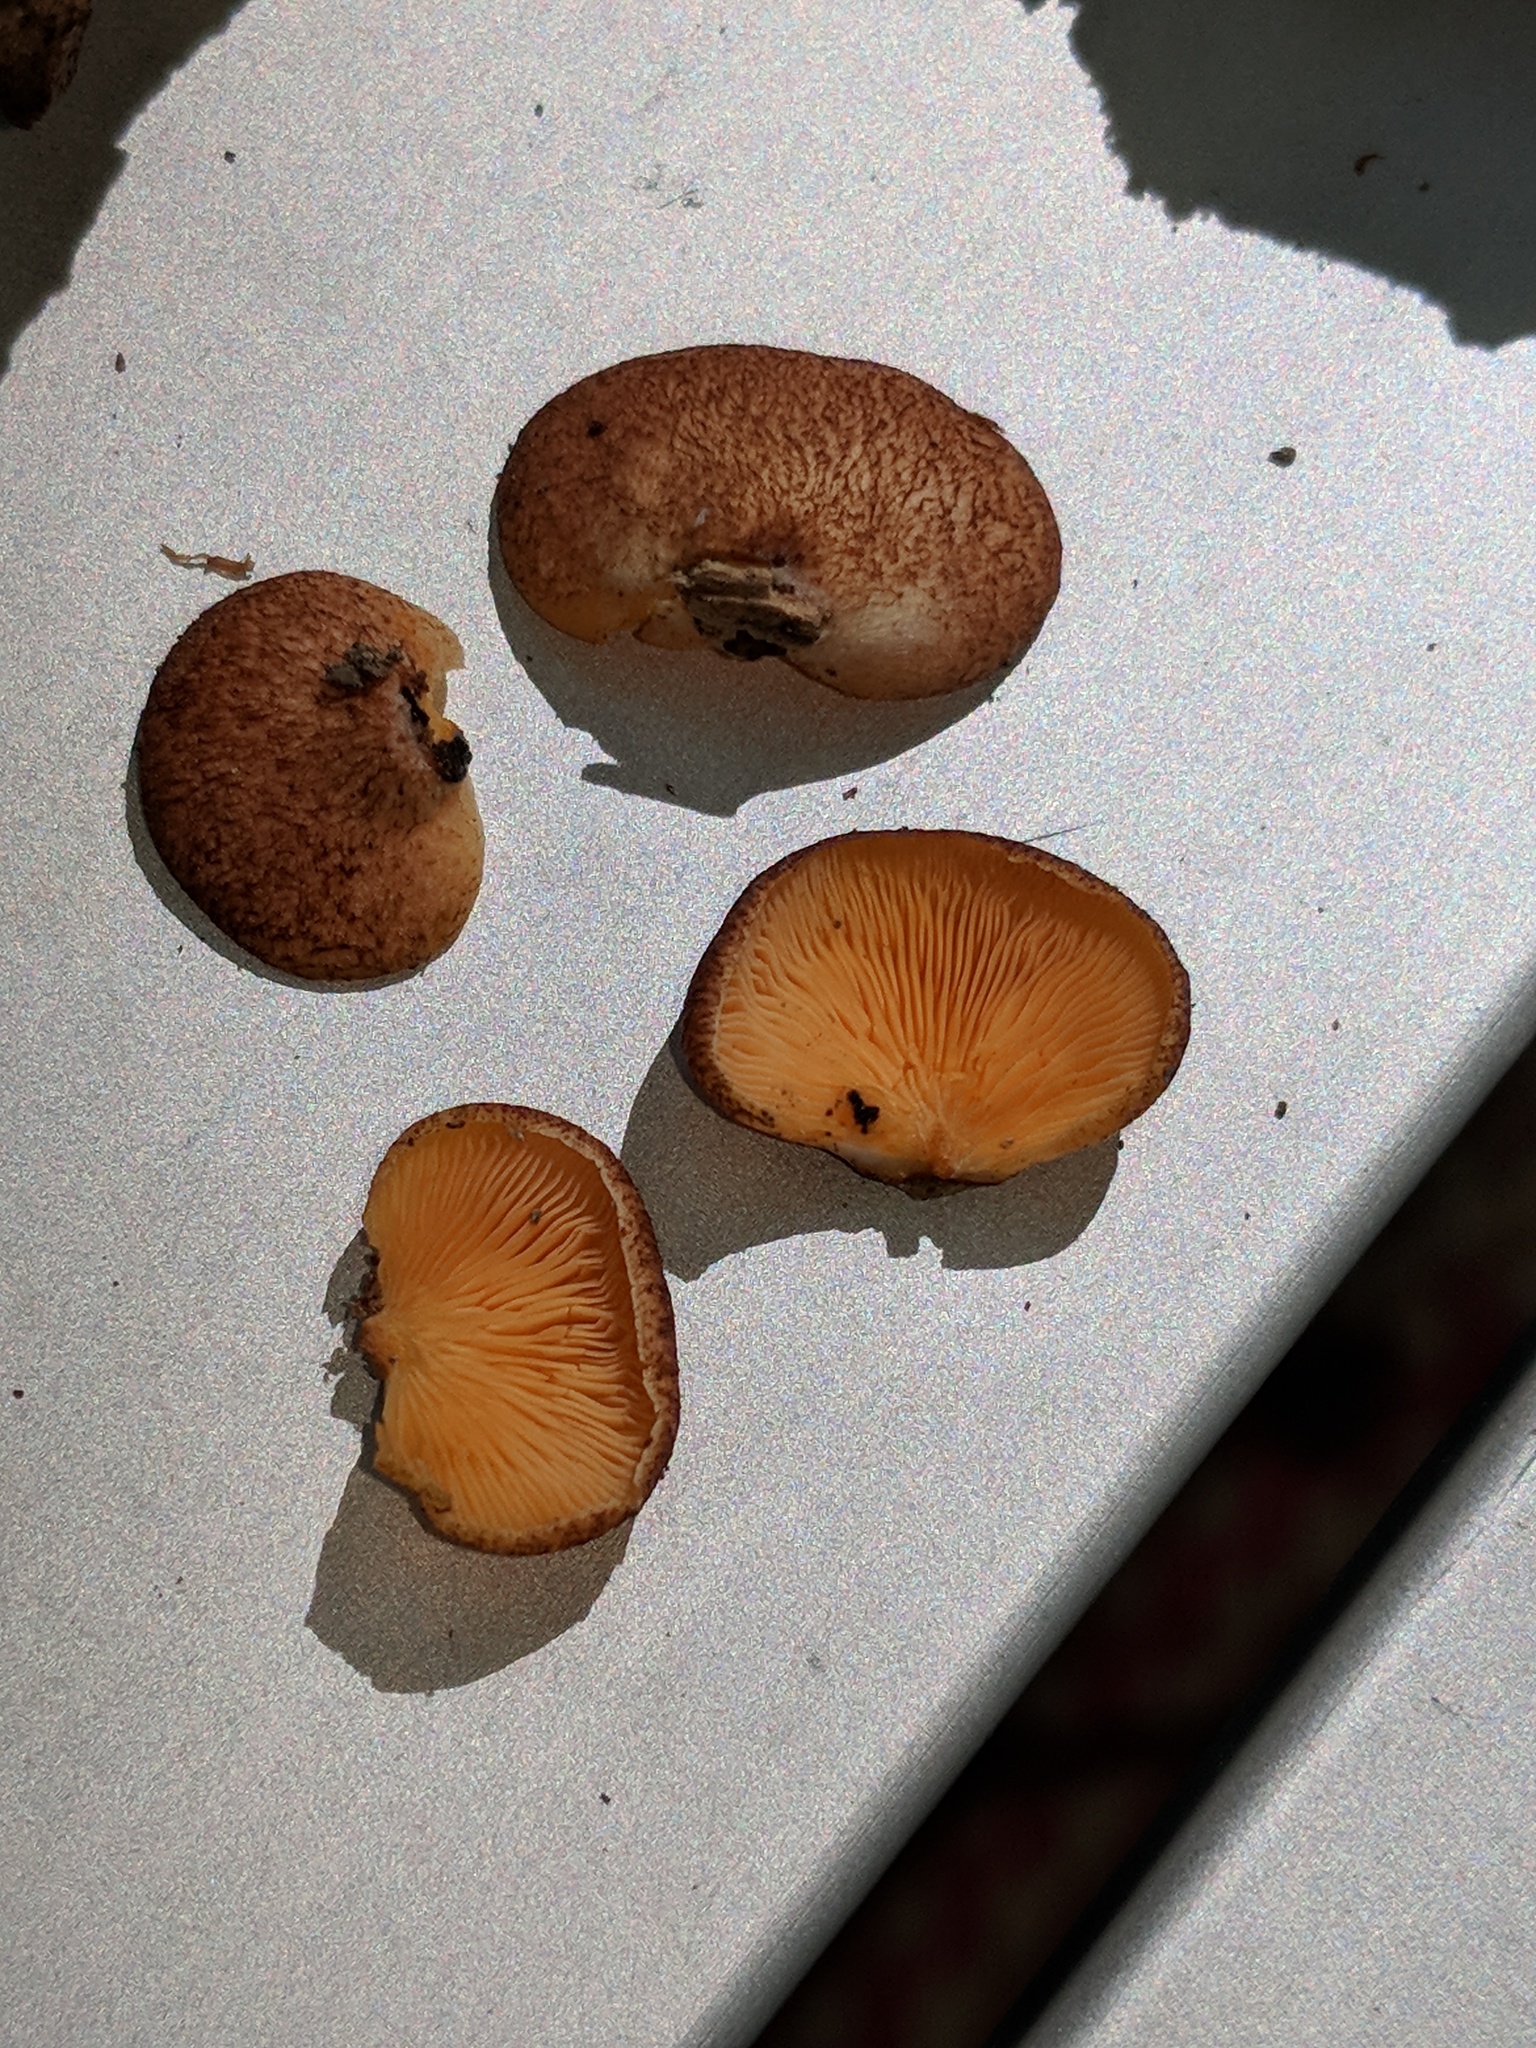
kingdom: Fungi
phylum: Basidiomycota
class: Agaricomycetes
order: Agaricales
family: Crepidotaceae
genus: Crepidotus
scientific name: Crepidotus crocophyllus
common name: Saffron oysterling
